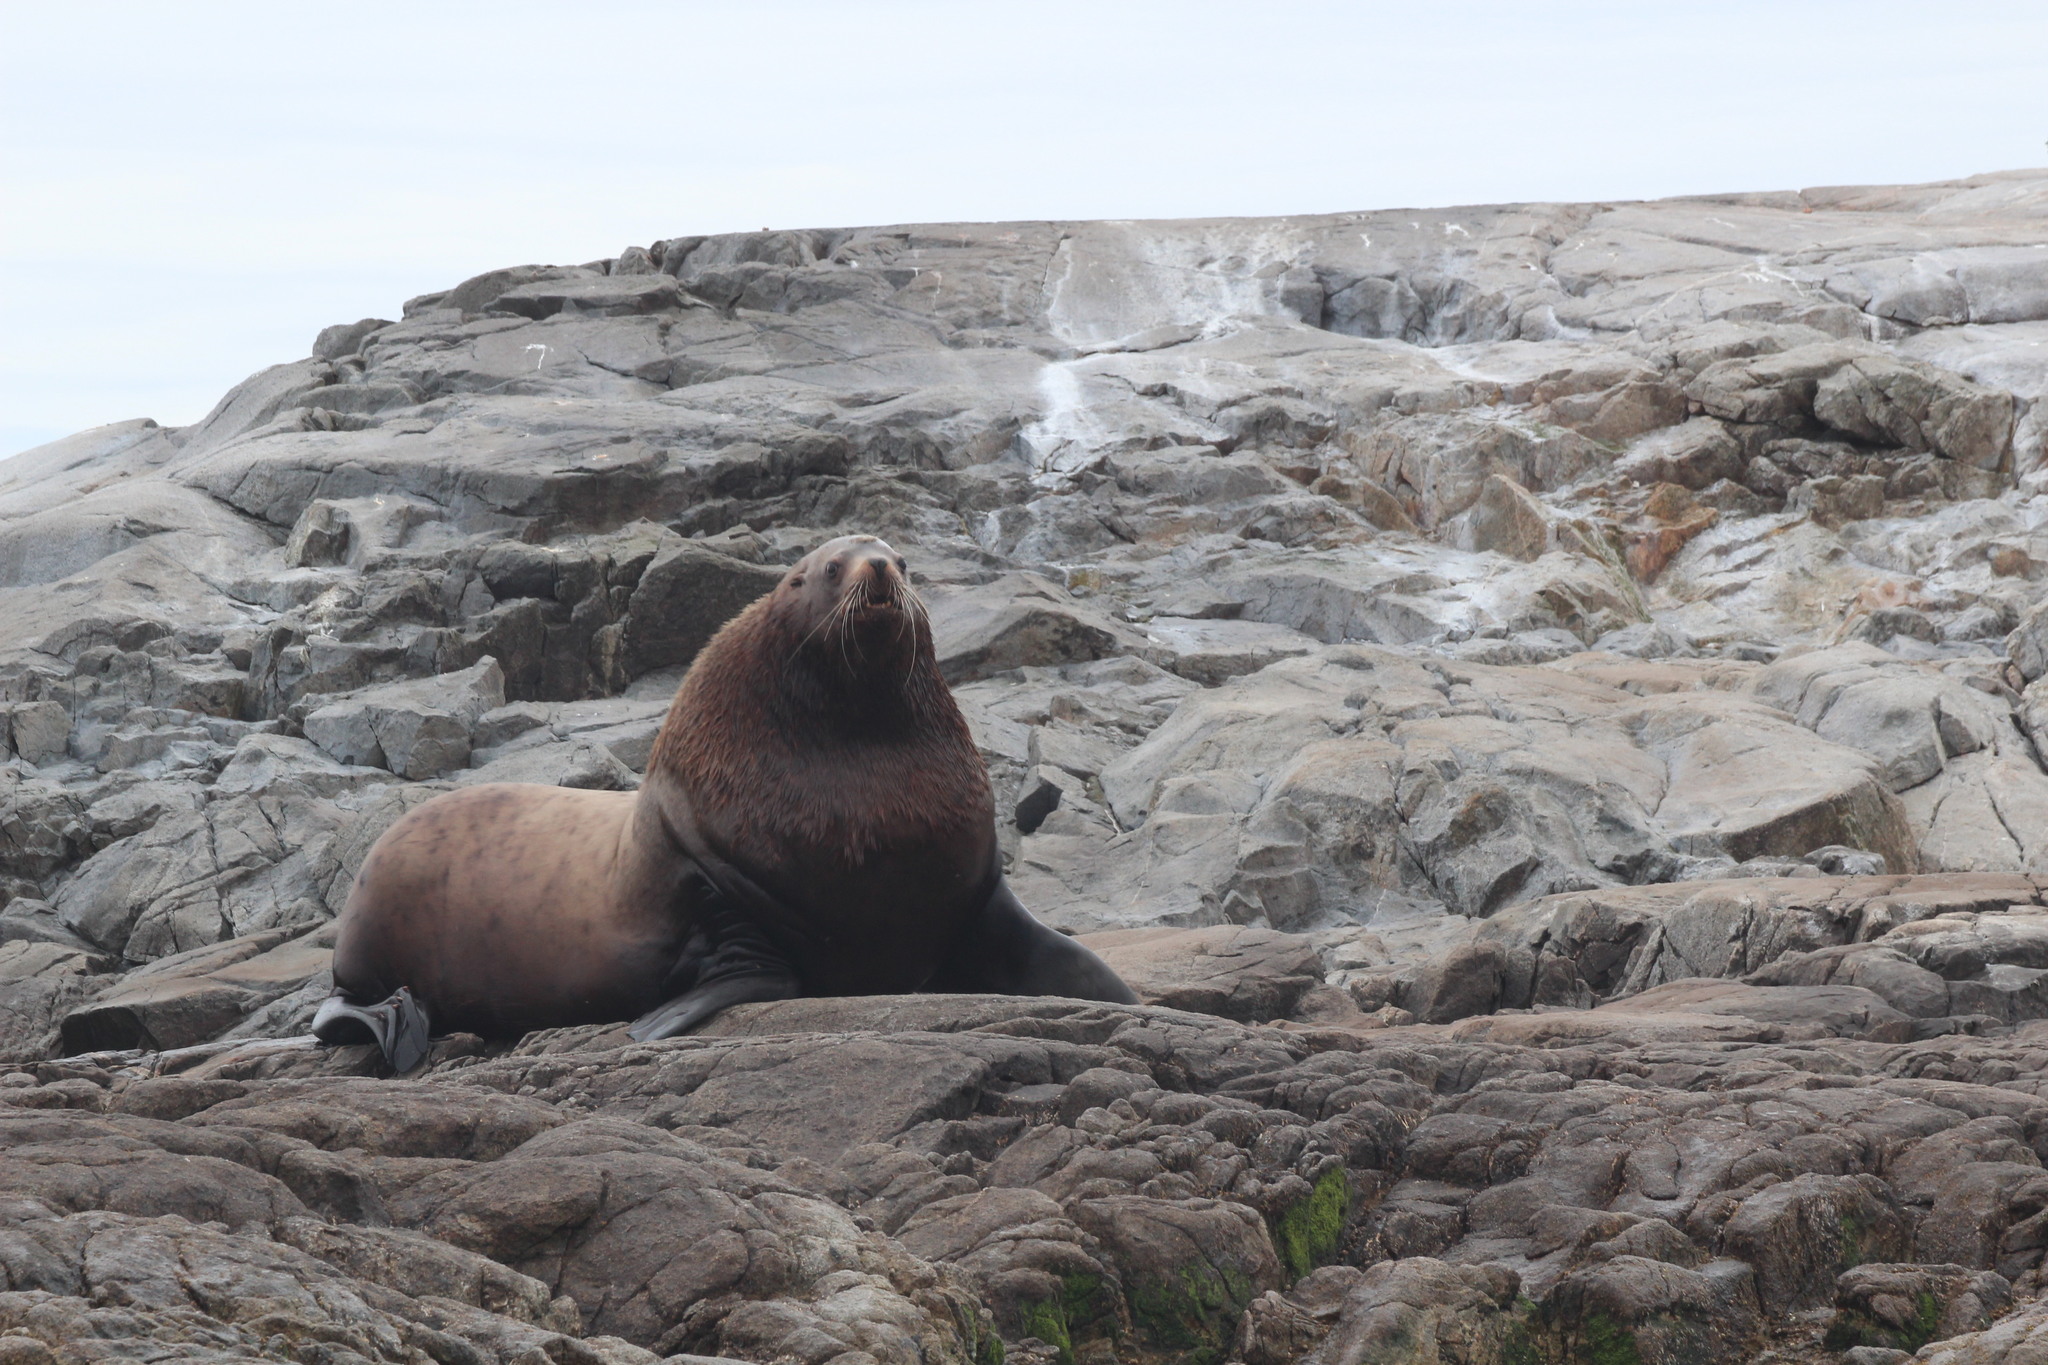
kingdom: Animalia
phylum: Chordata
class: Mammalia
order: Carnivora
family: Otariidae
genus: Eumetopias
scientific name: Eumetopias jubatus
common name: Steller sea lion
